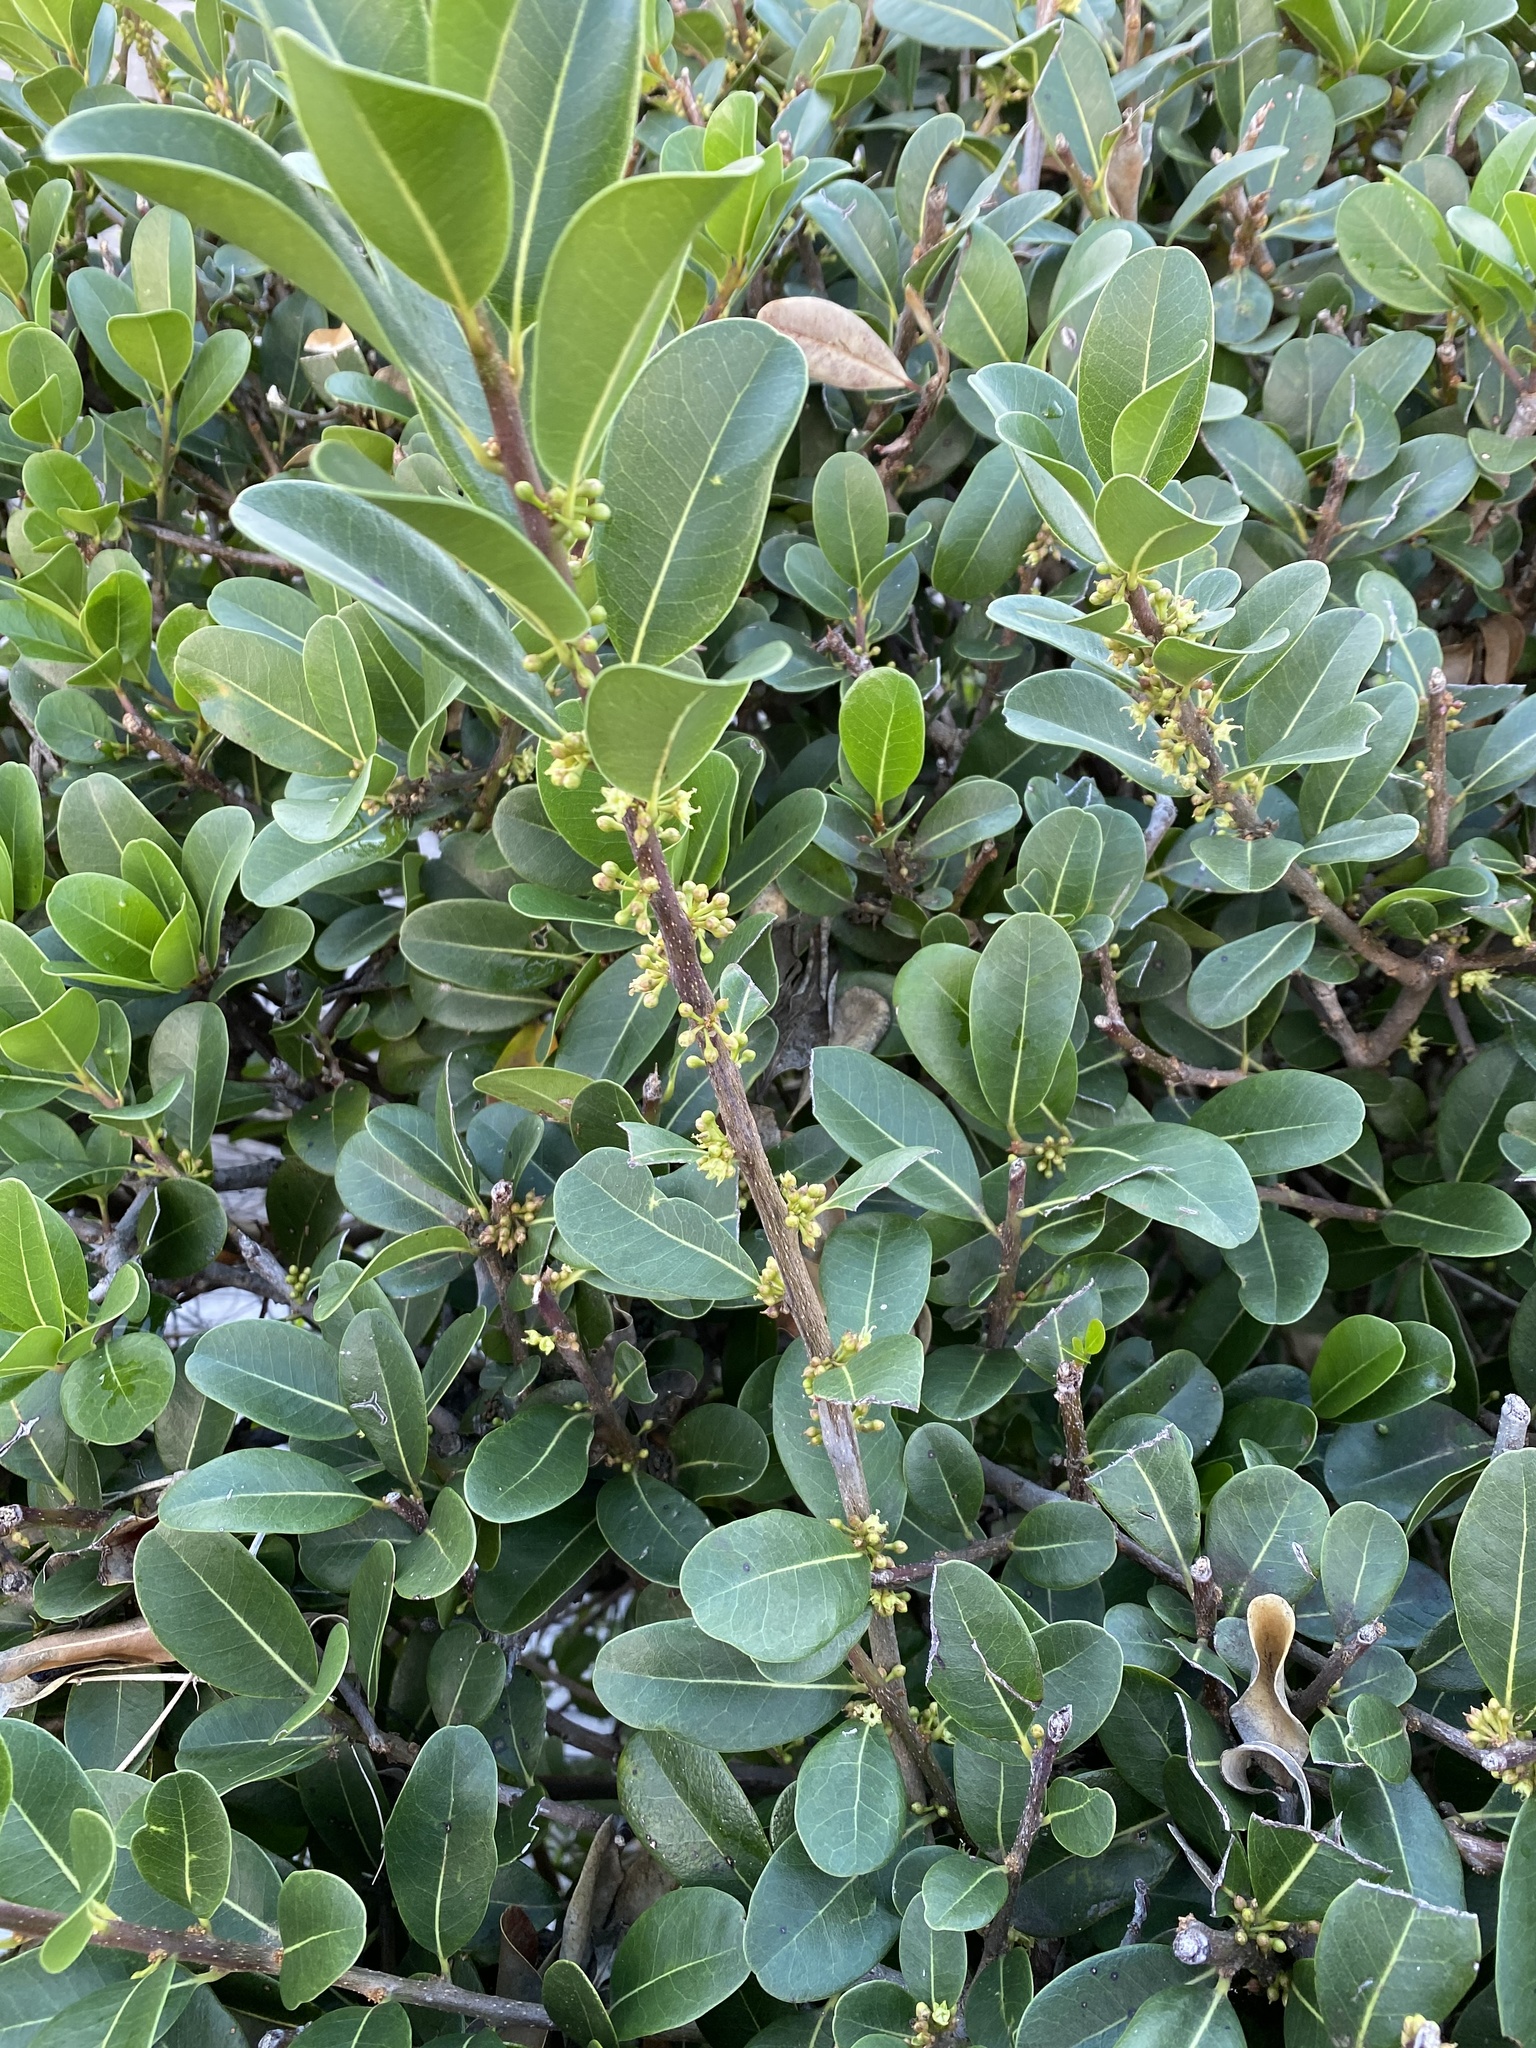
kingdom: Plantae
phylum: Tracheophyta
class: Magnoliopsida
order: Ericales
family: Sapotaceae
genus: Sideroxylon
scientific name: Sideroxylon inerme
